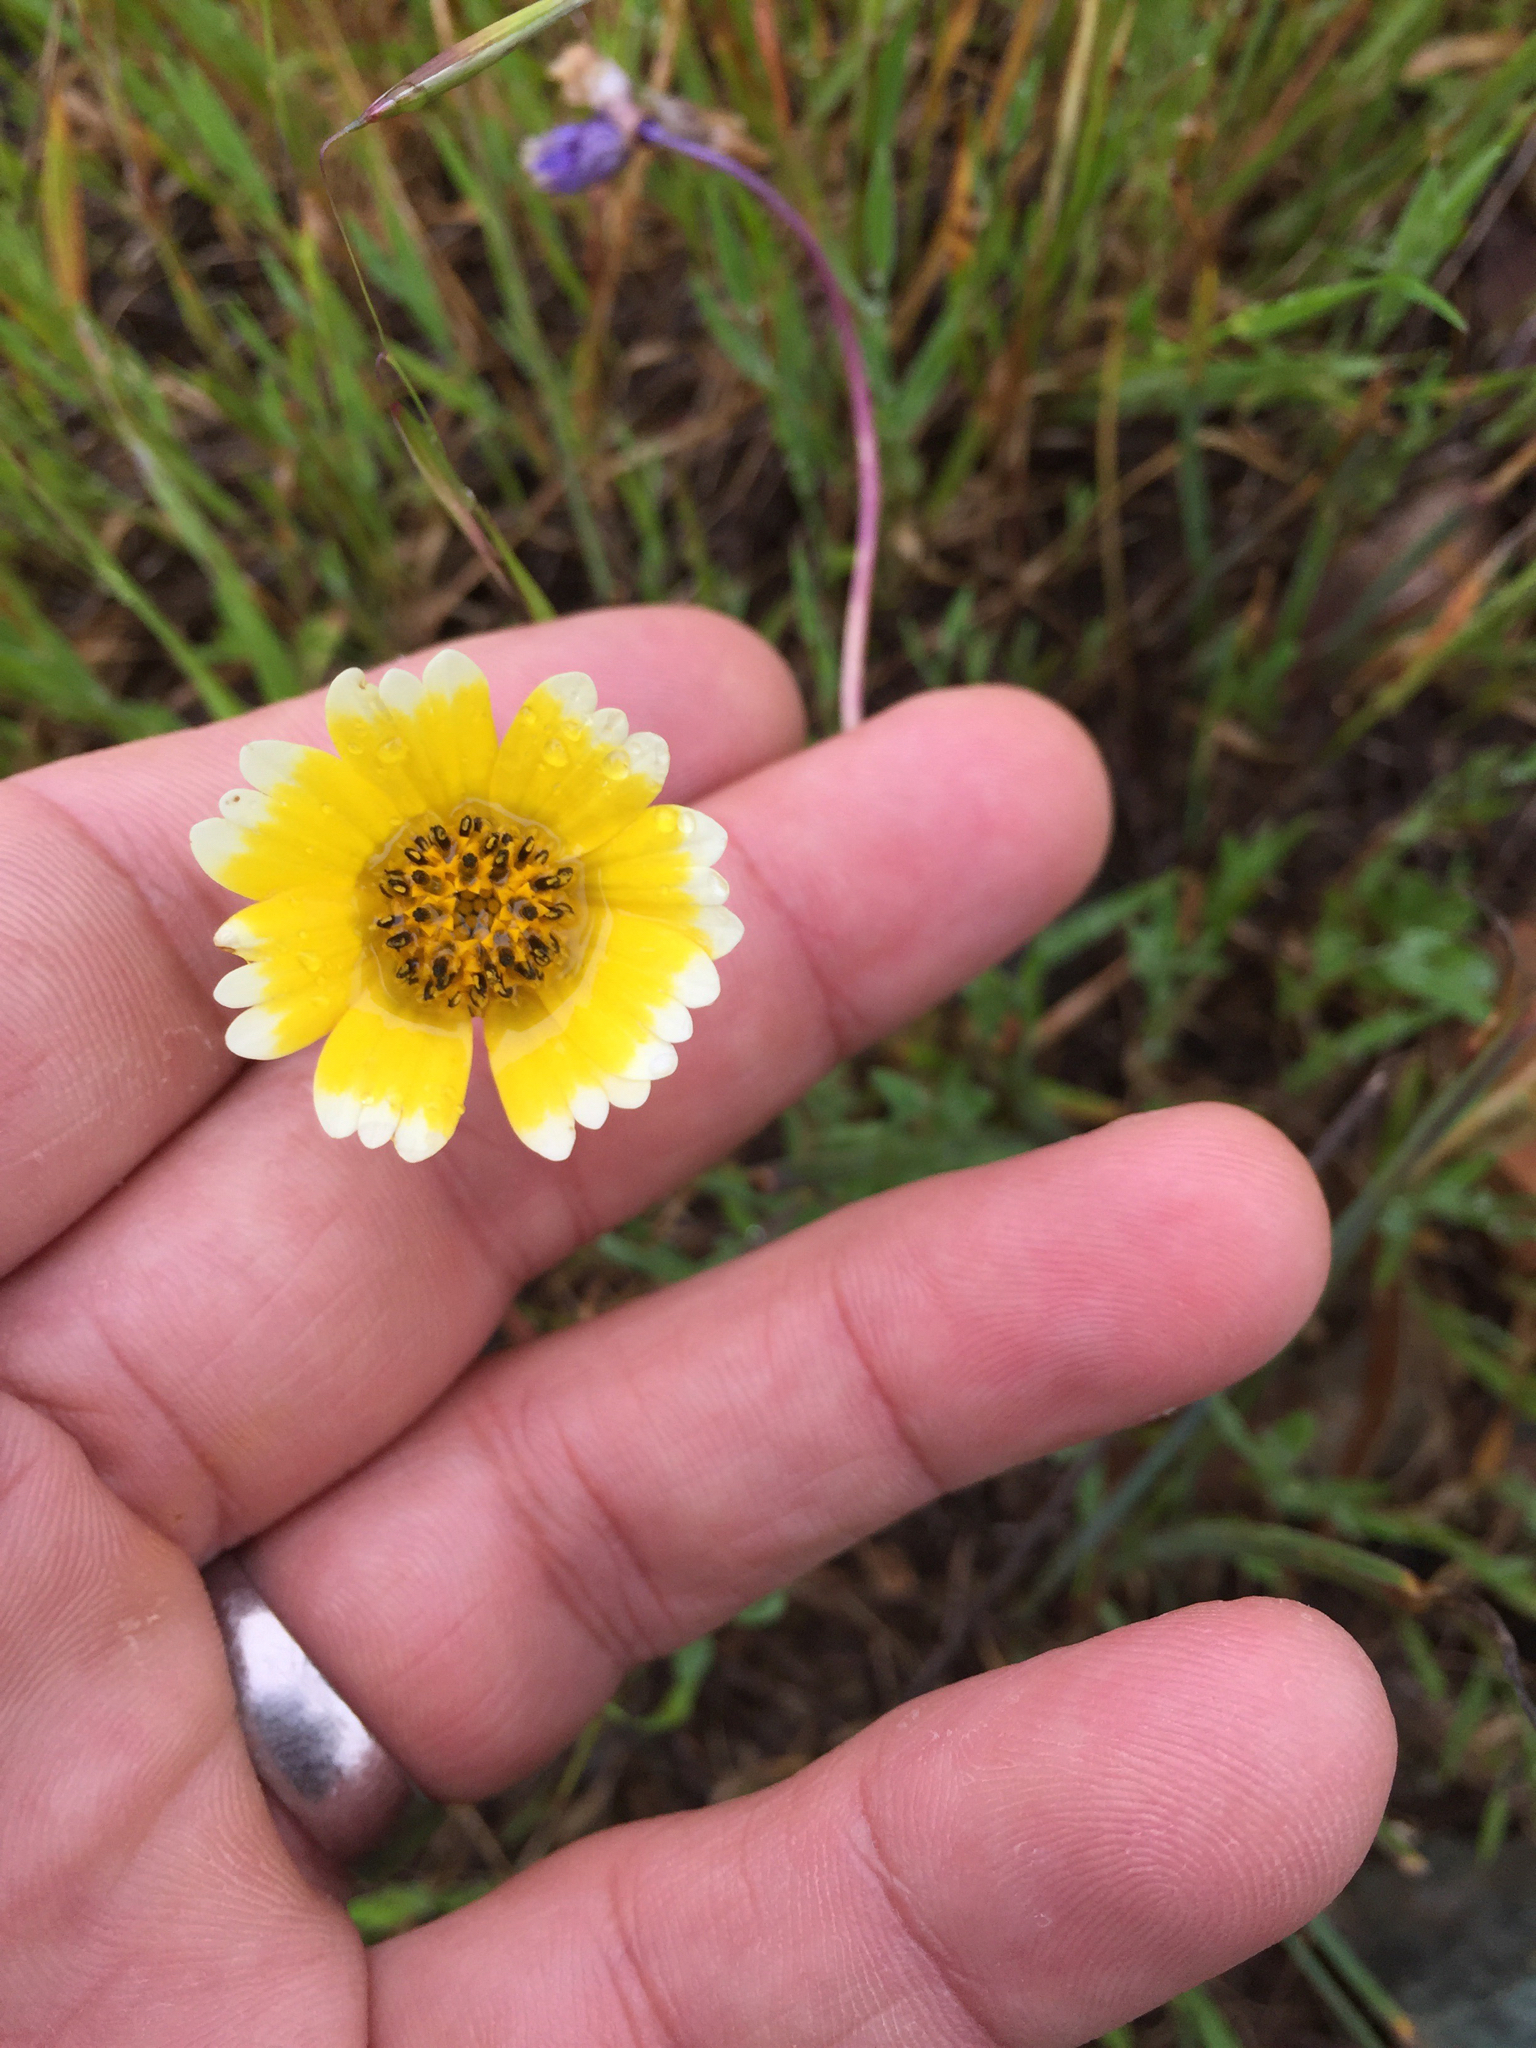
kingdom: Plantae
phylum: Tracheophyta
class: Magnoliopsida
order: Asterales
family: Asteraceae
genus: Layia
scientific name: Layia platyglossa
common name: Tidy-tips
